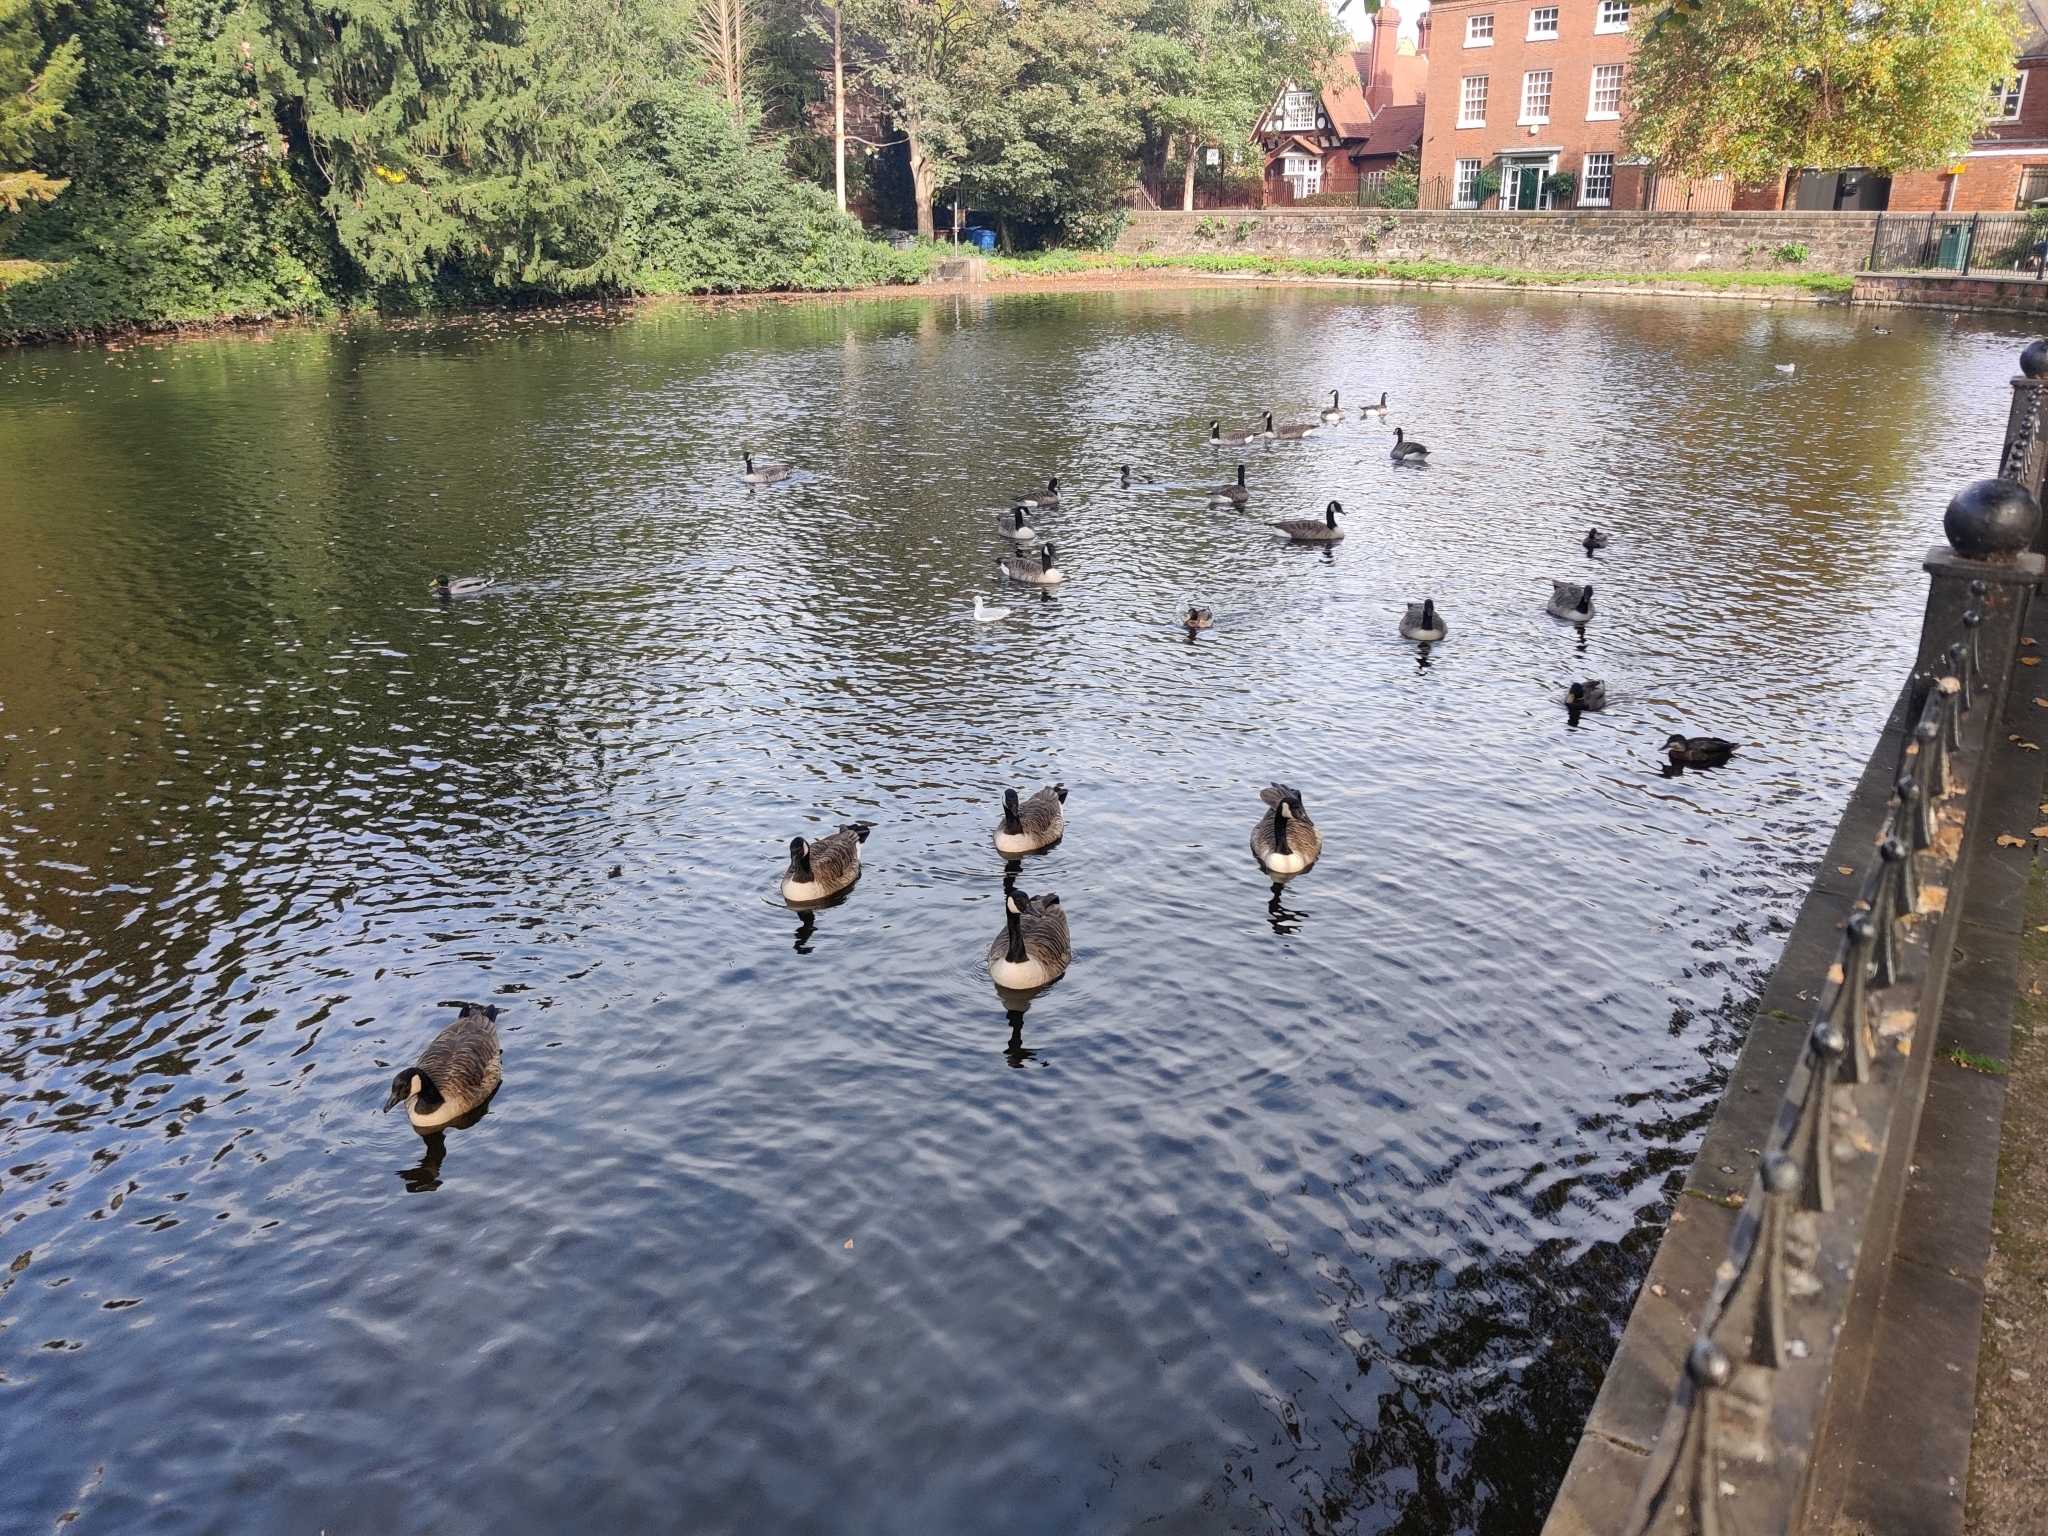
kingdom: Animalia
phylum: Chordata
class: Aves
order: Anseriformes
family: Anatidae
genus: Branta
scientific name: Branta canadensis
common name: Canada goose
